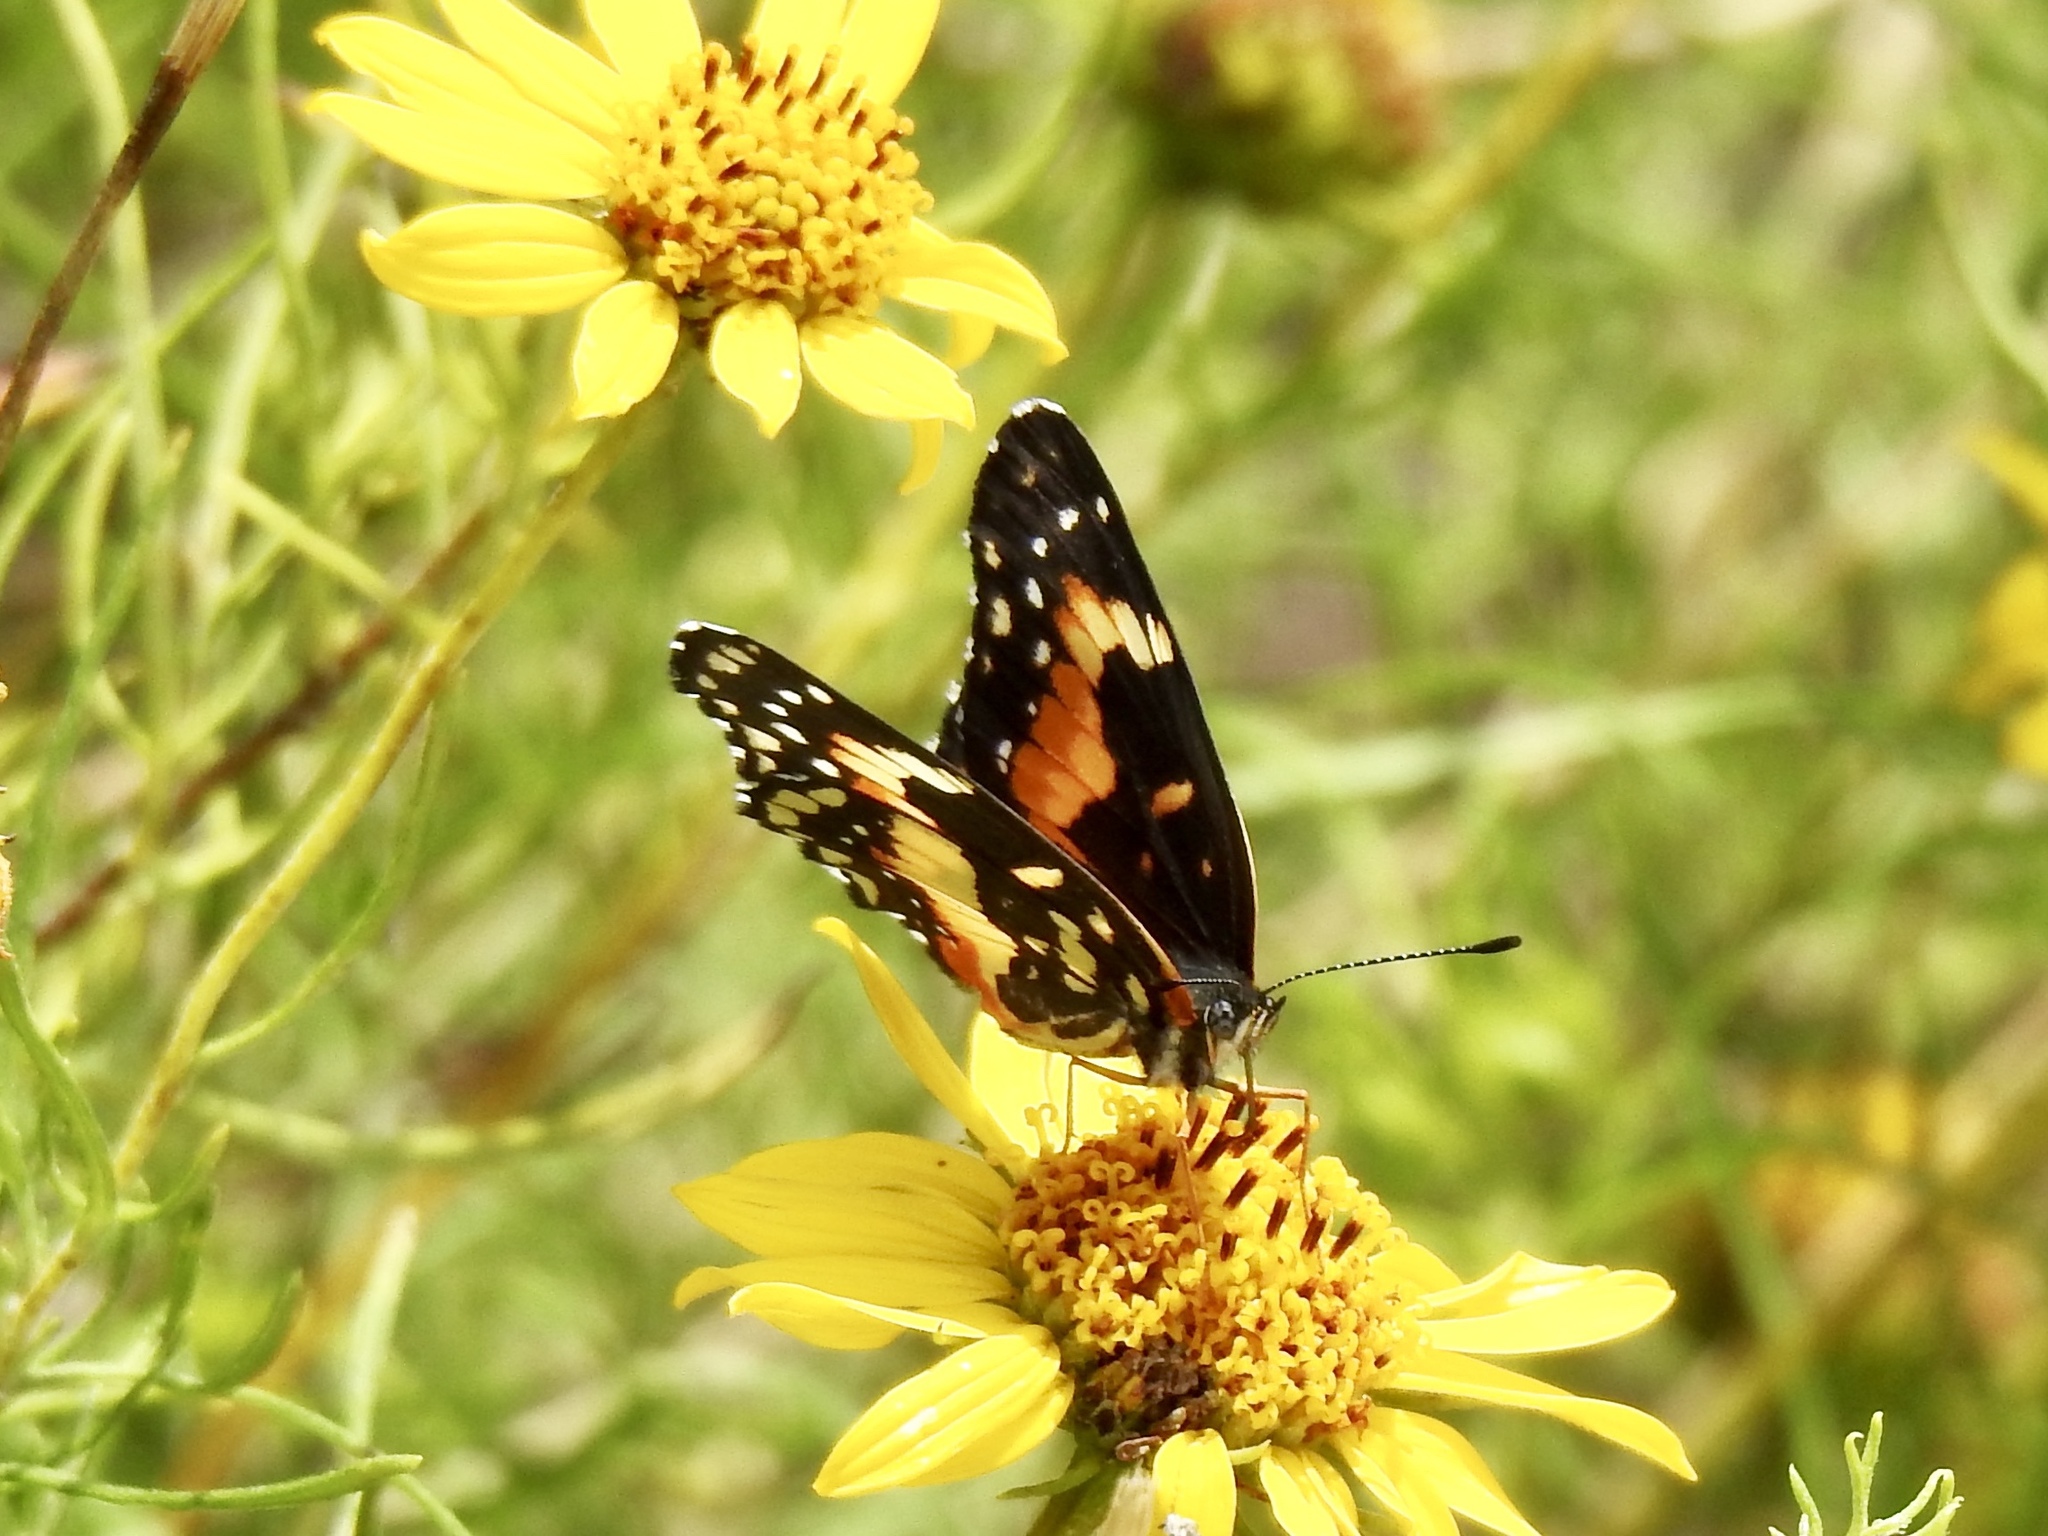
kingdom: Animalia
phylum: Arthropoda
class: Insecta
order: Lepidoptera
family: Nymphalidae
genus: Chlosyne
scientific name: Chlosyne lacinia
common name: Bordered patch
